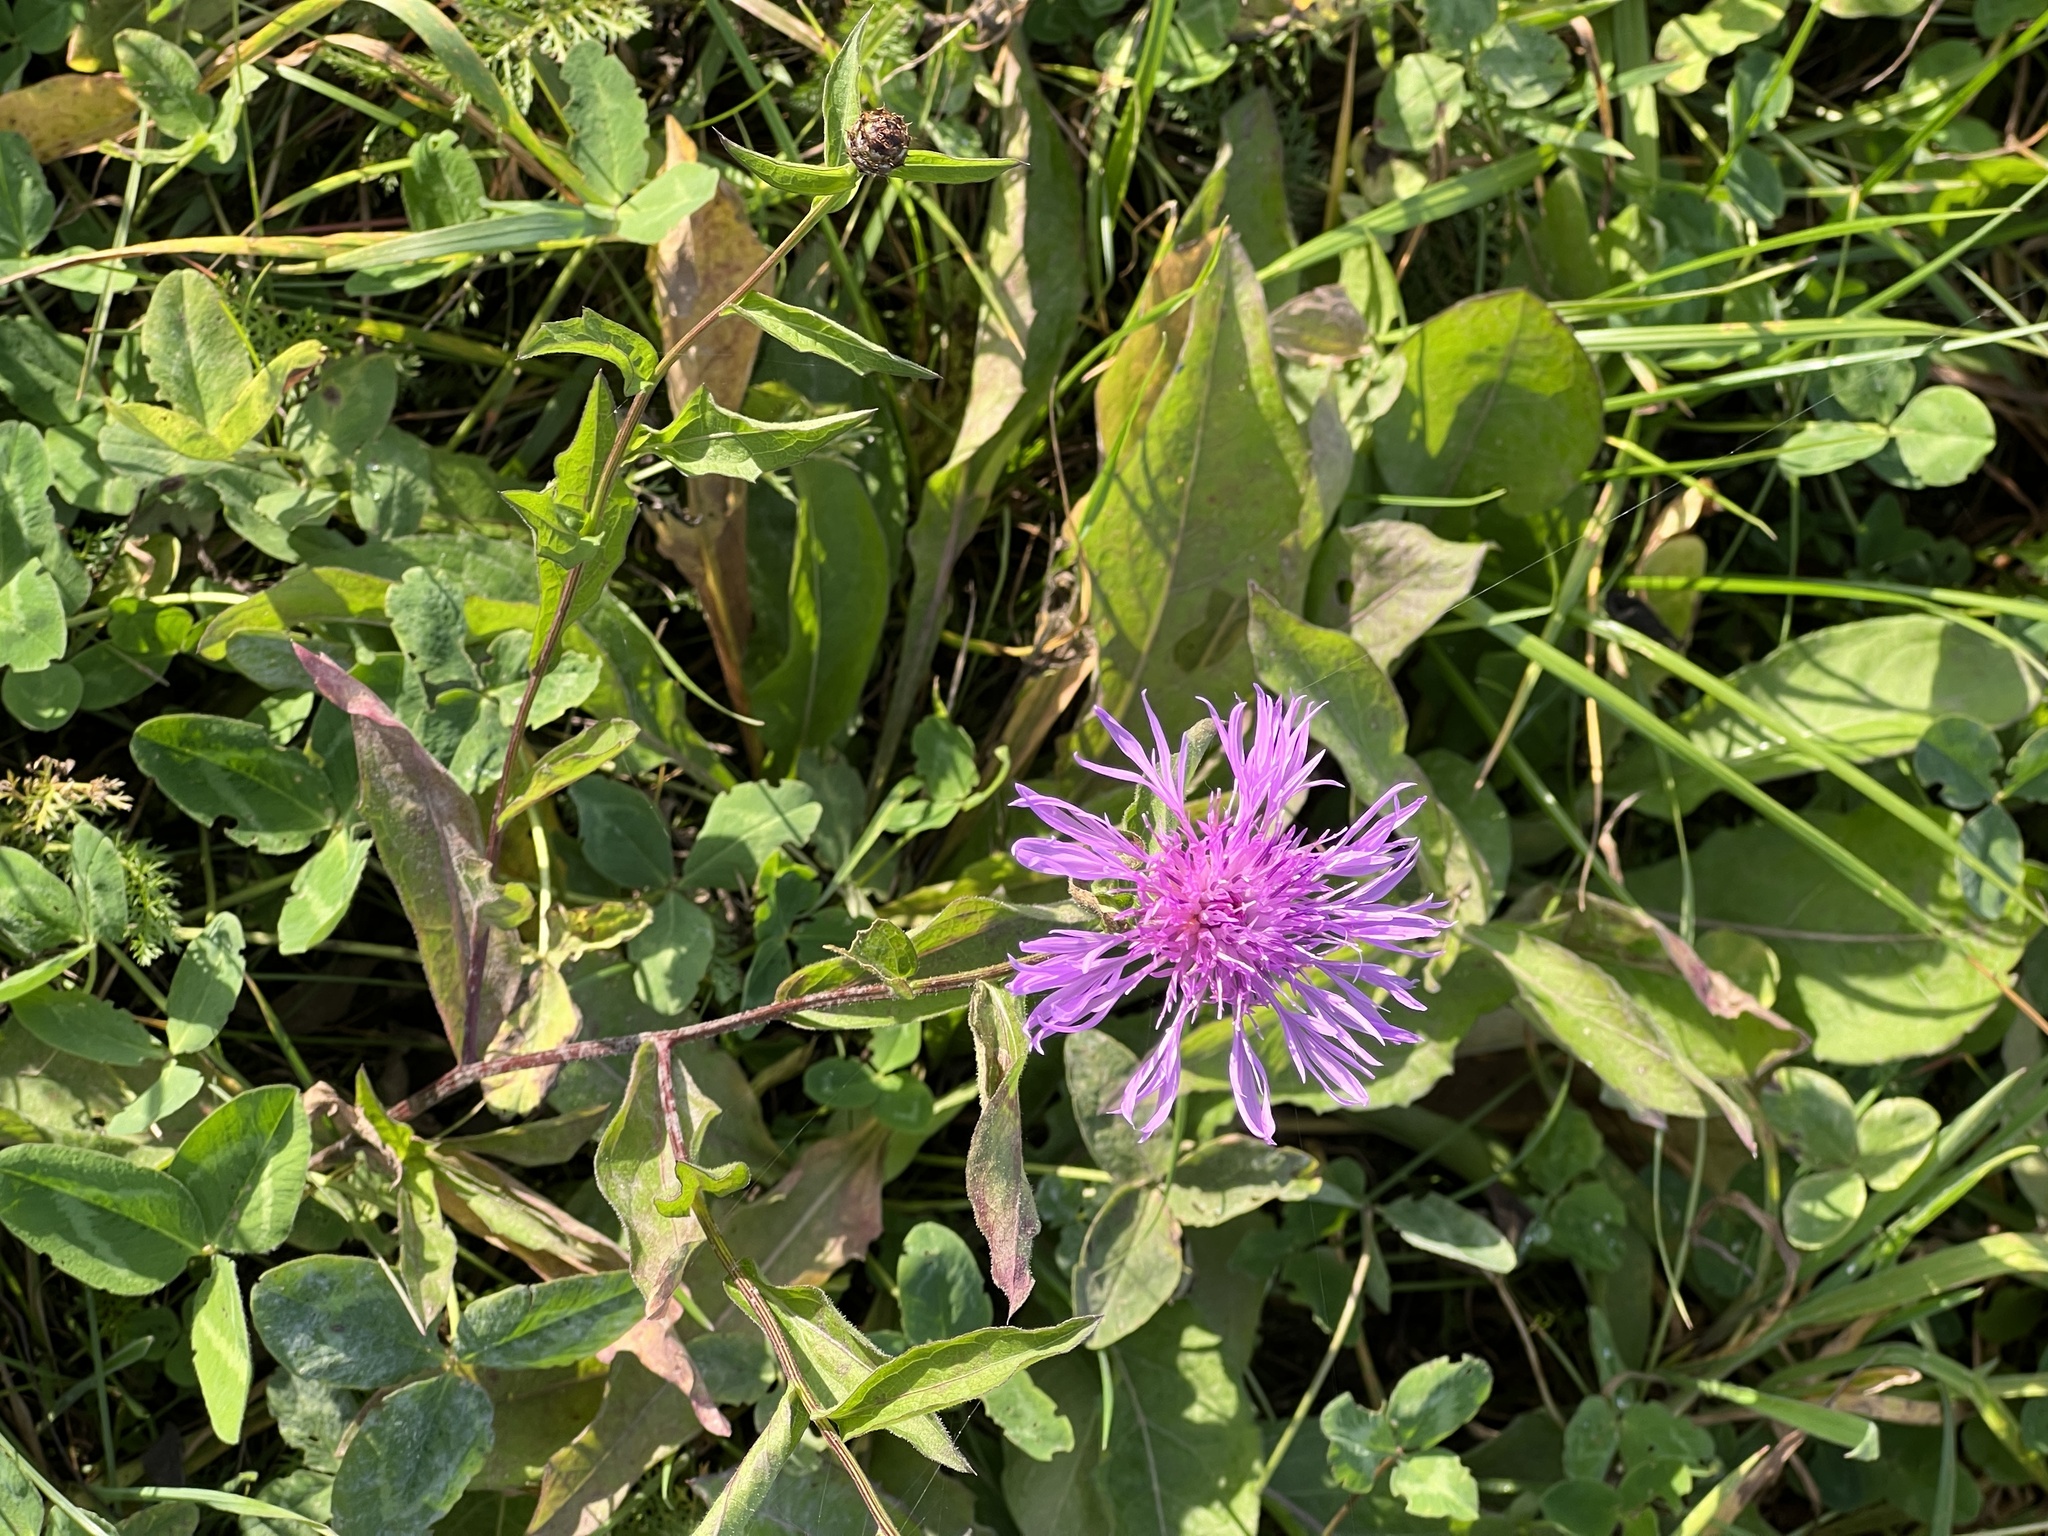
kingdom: Plantae
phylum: Tracheophyta
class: Magnoliopsida
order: Asterales
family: Asteraceae
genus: Centaurea
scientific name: Centaurea fleischeri
